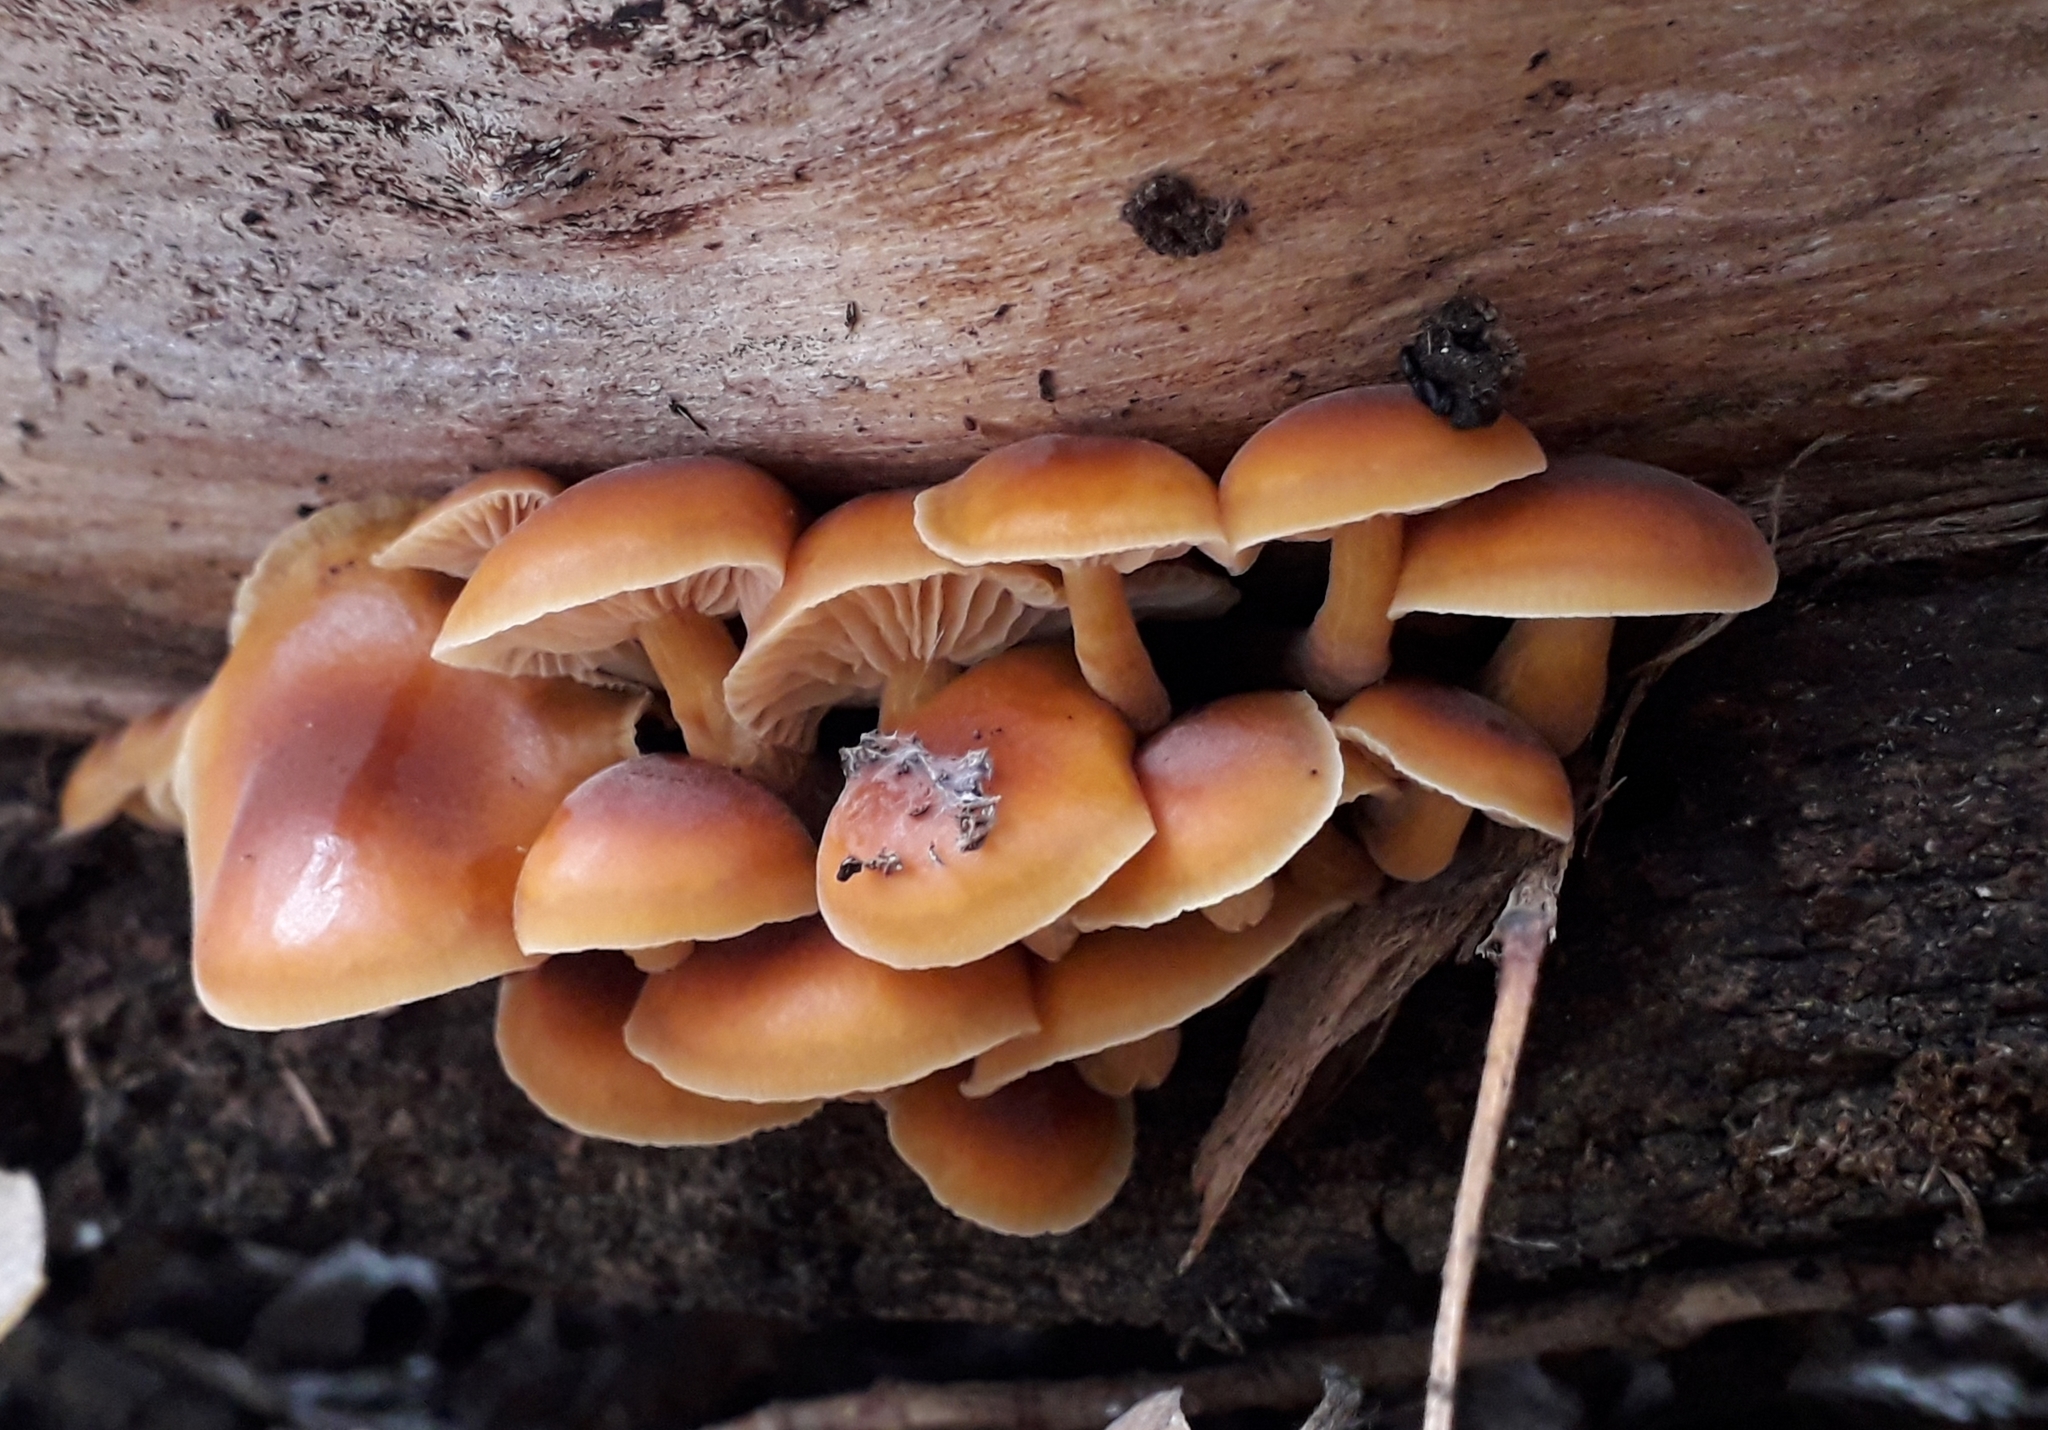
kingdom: Fungi
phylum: Basidiomycota
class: Agaricomycetes
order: Agaricales
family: Physalacriaceae
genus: Flammulina
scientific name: Flammulina
